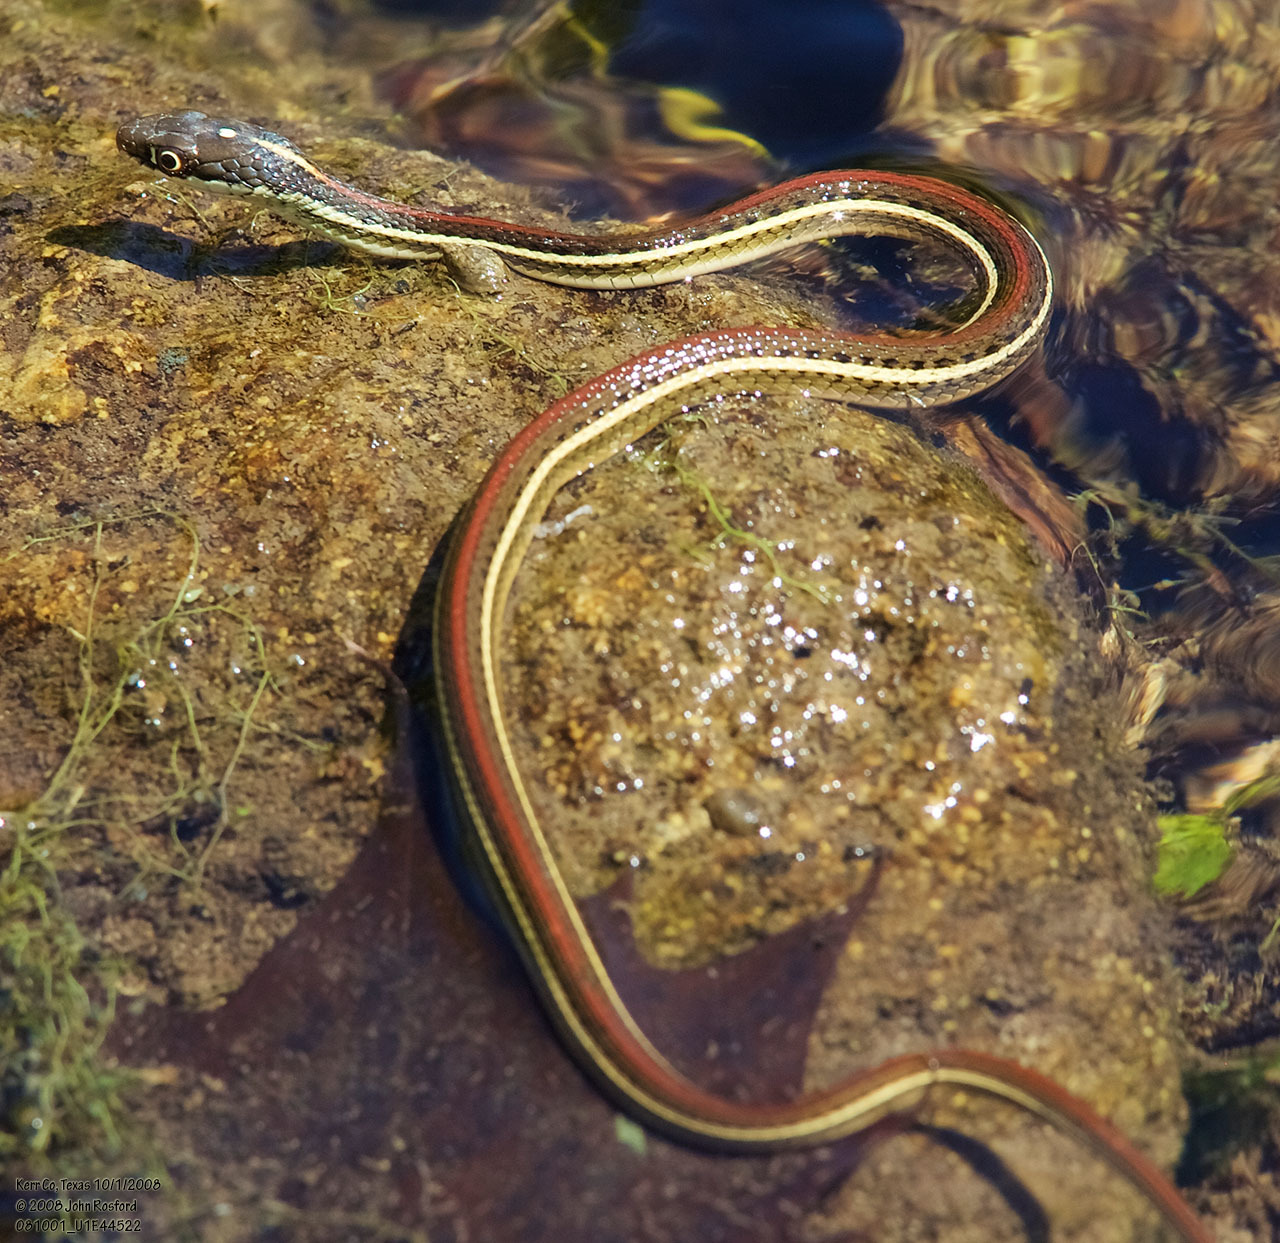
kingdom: Animalia
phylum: Chordata
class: Squamata
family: Colubridae
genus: Thamnophis
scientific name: Thamnophis proximus
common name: Western ribbon snake
